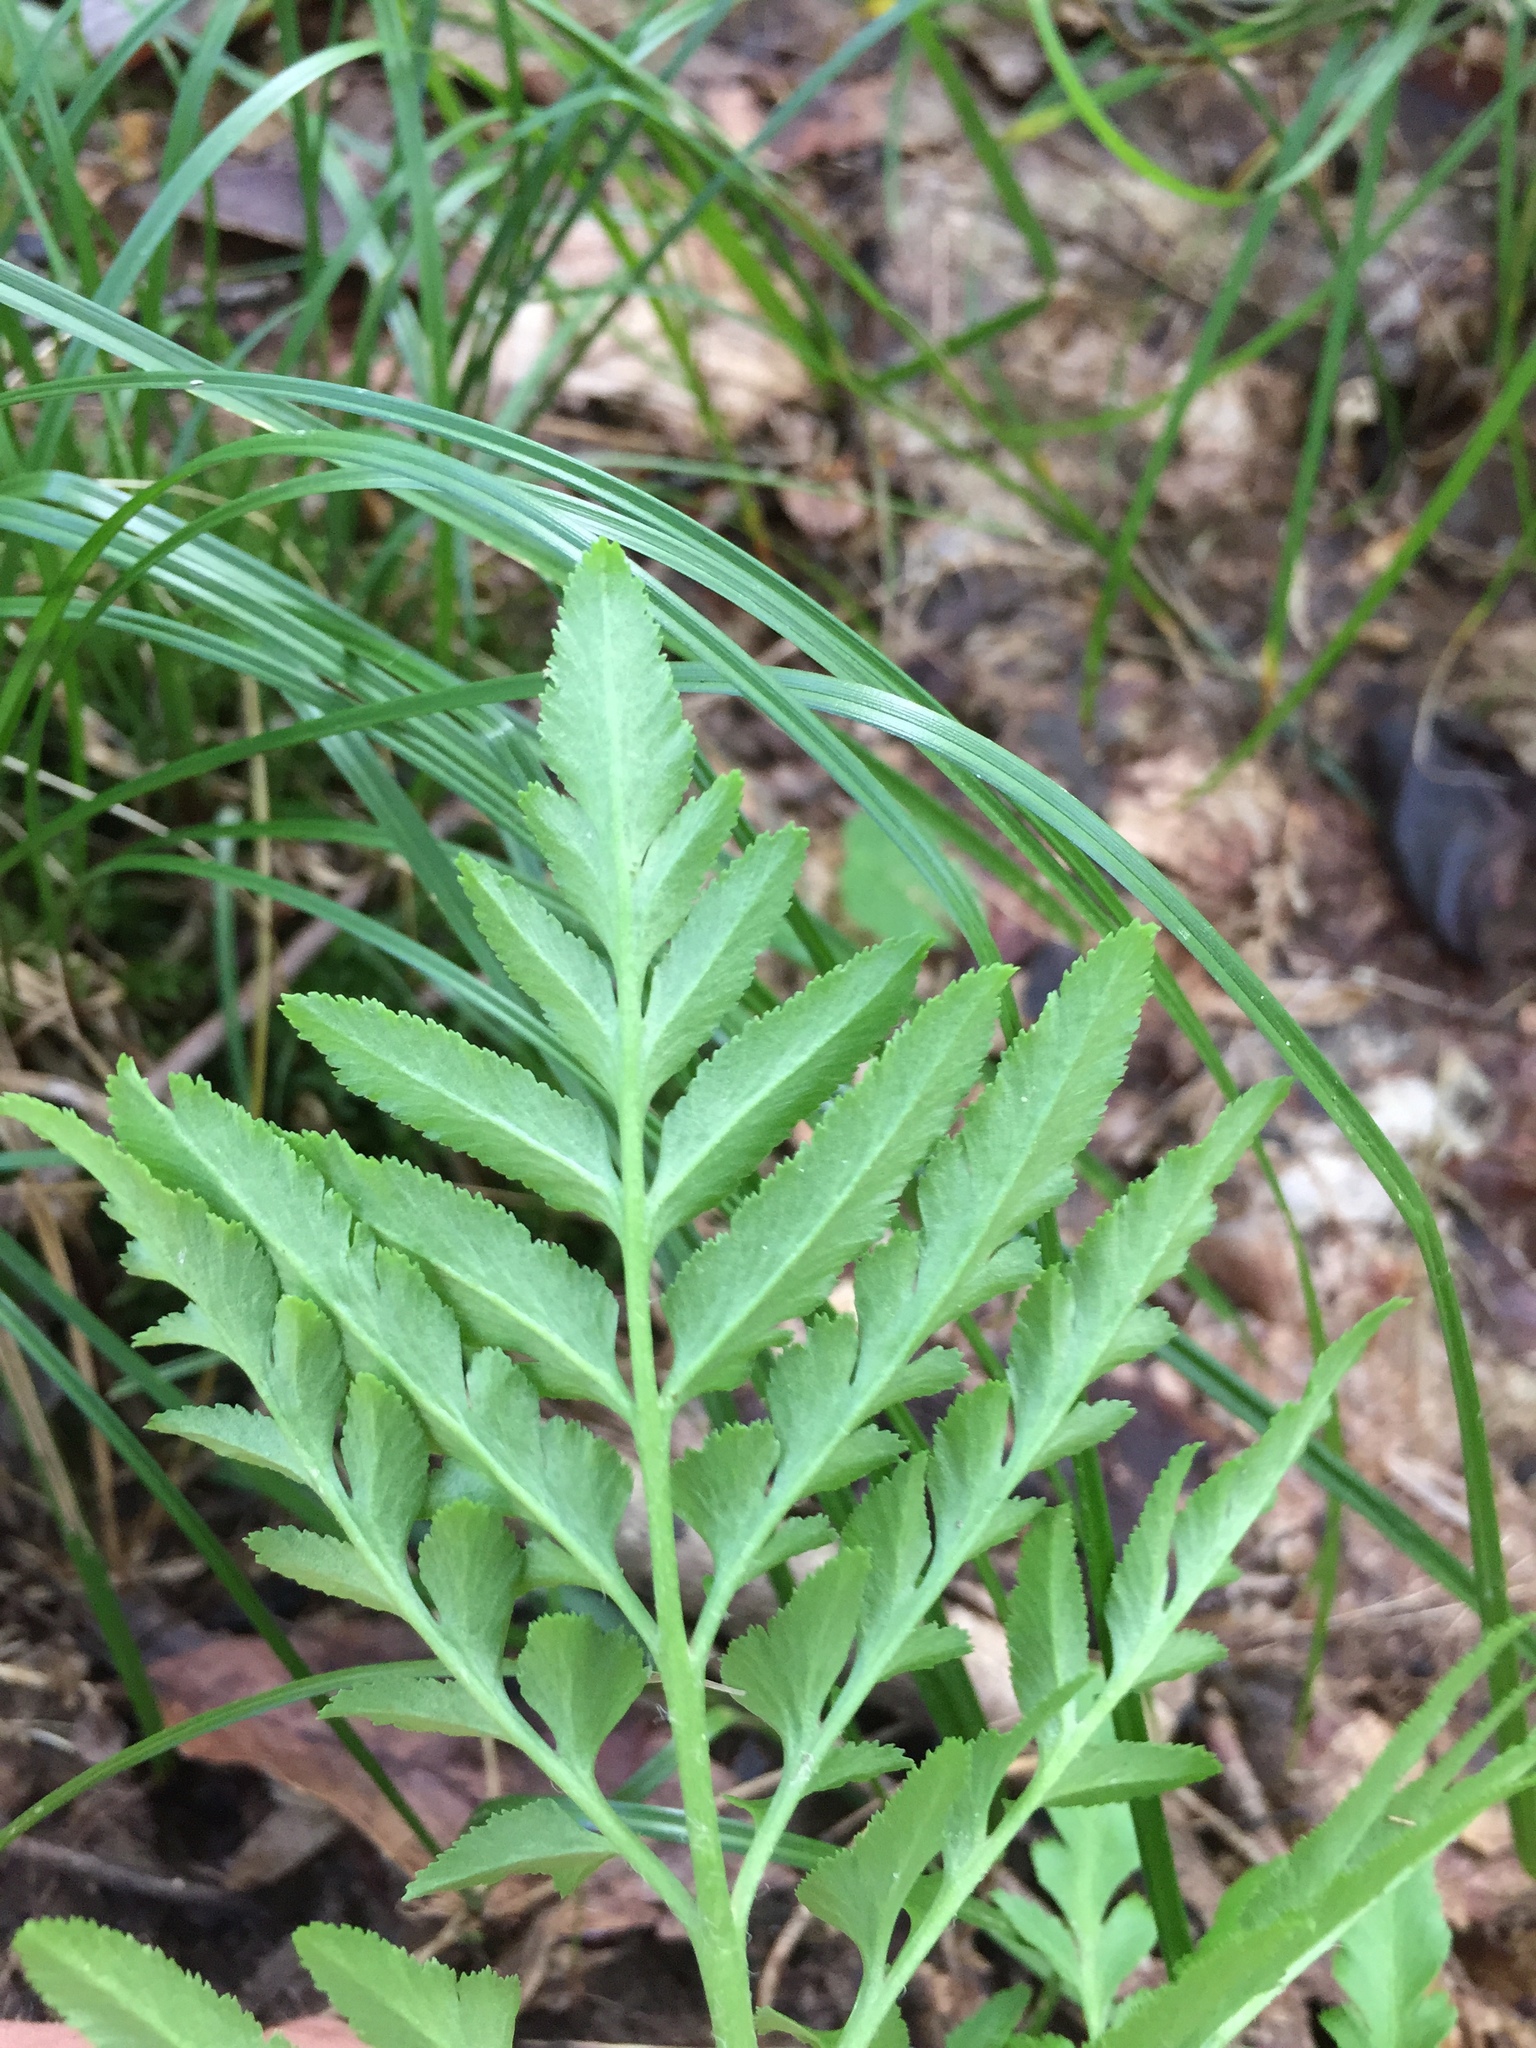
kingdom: Plantae
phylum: Tracheophyta
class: Polypodiopsida
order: Ophioglossales
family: Ophioglossaceae
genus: Sceptridium
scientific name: Sceptridium dissectum
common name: Cut-leaved grapefern
